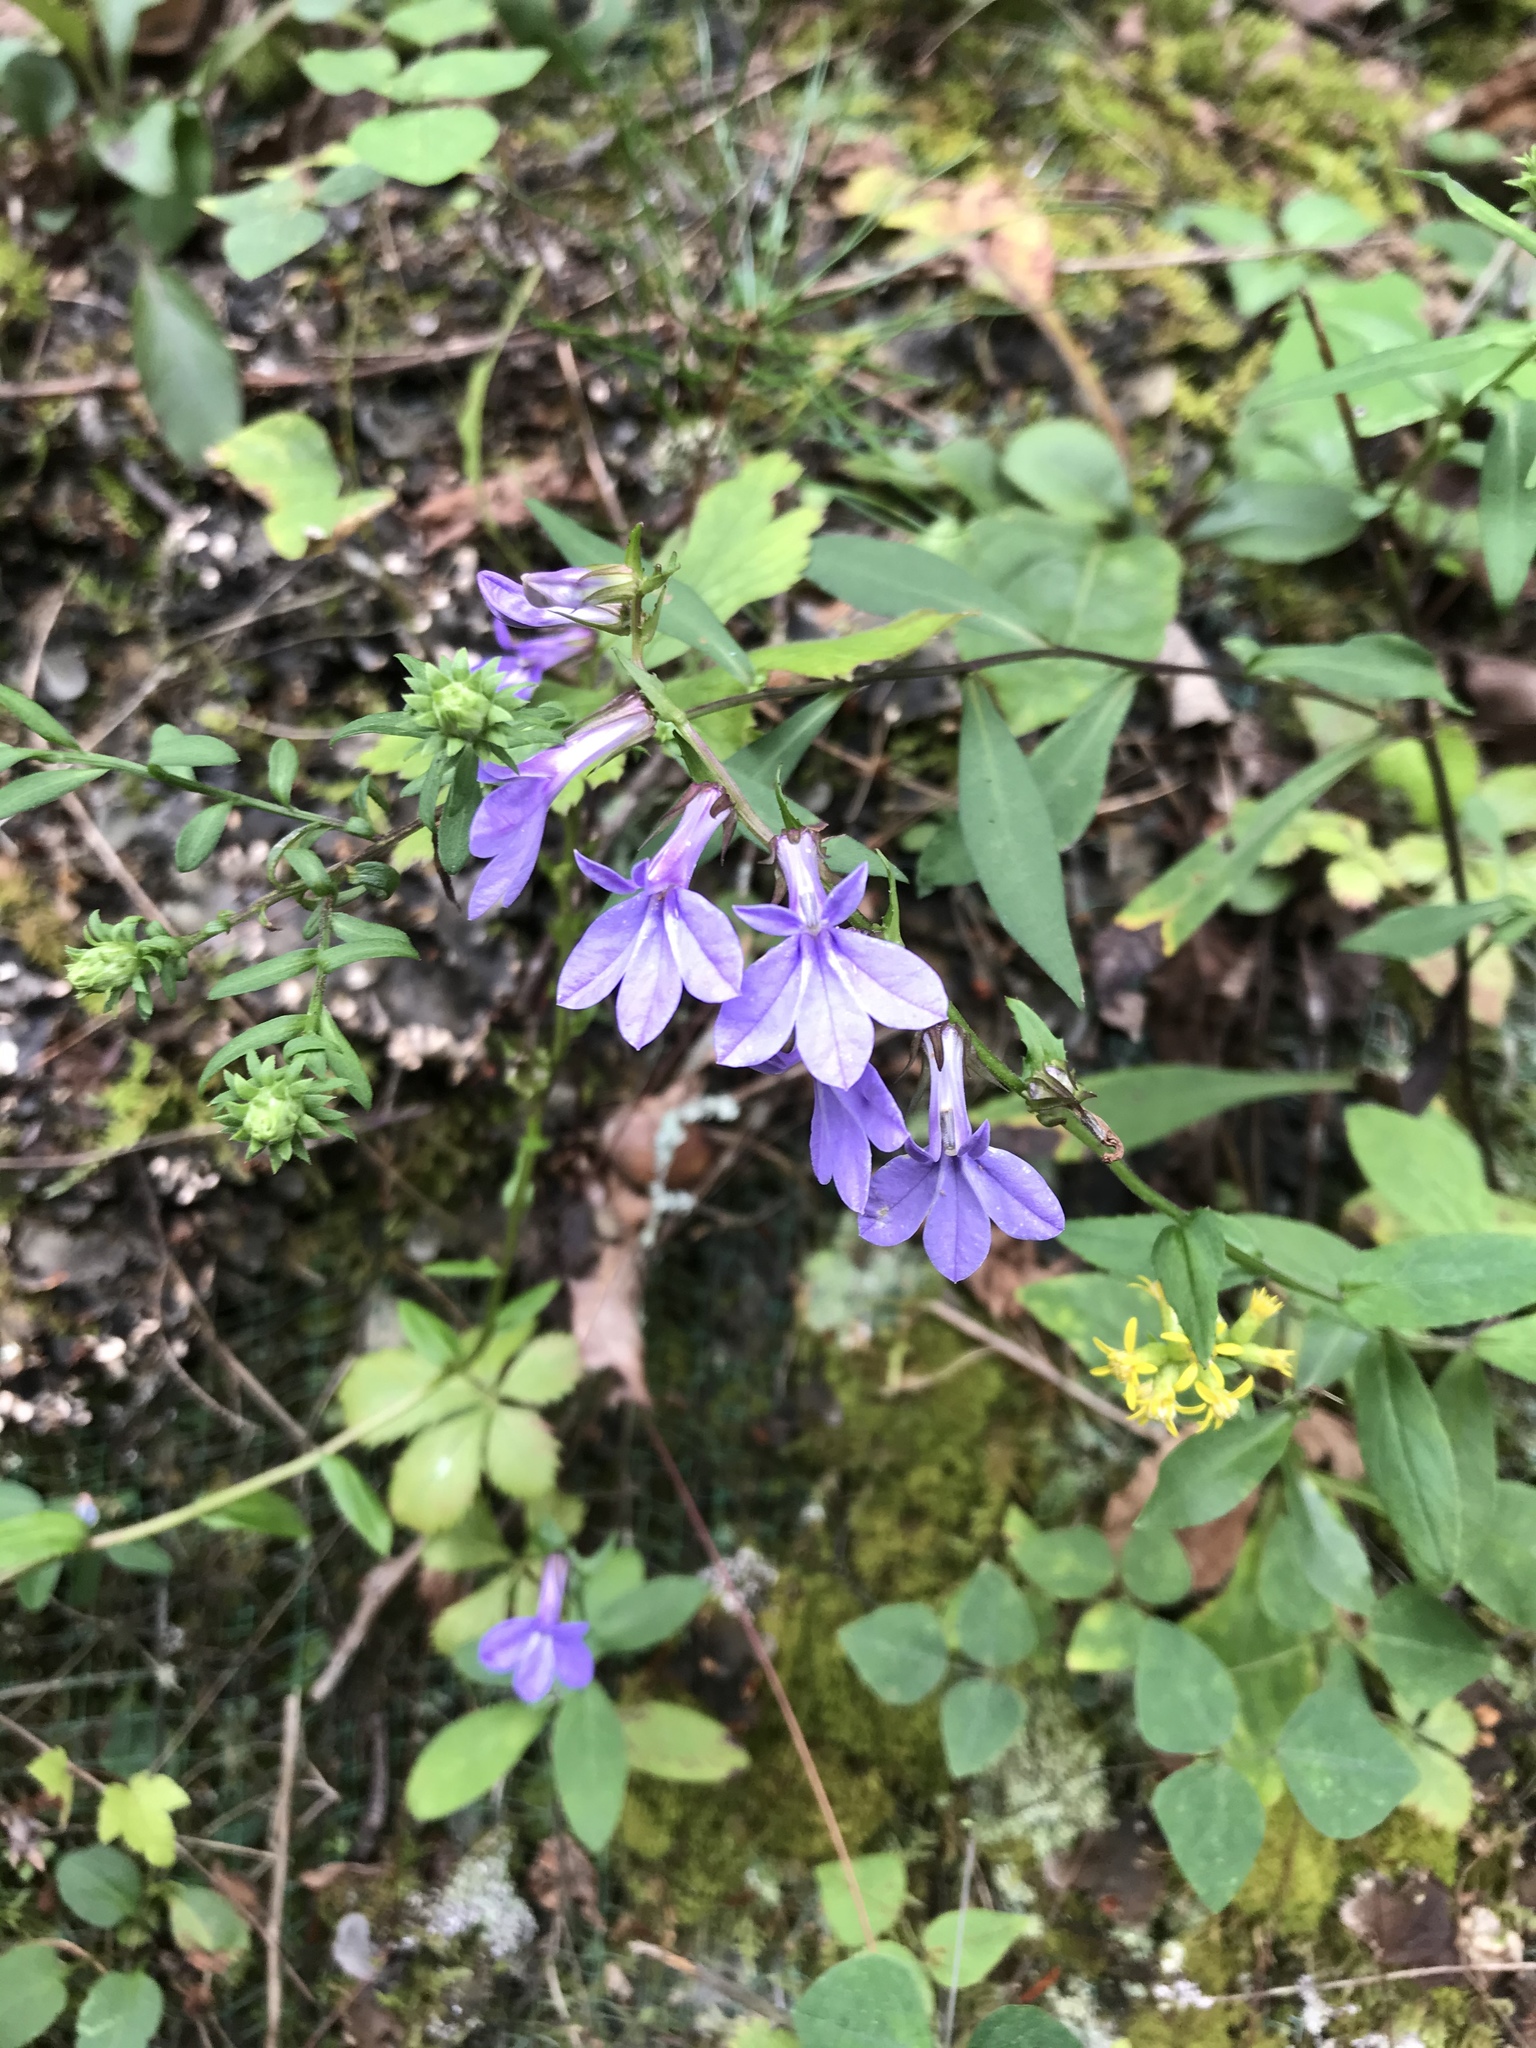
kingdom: Plantae
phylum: Tracheophyta
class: Magnoliopsida
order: Asterales
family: Campanulaceae
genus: Lobelia
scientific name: Lobelia puberula
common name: Purple dewdrop
